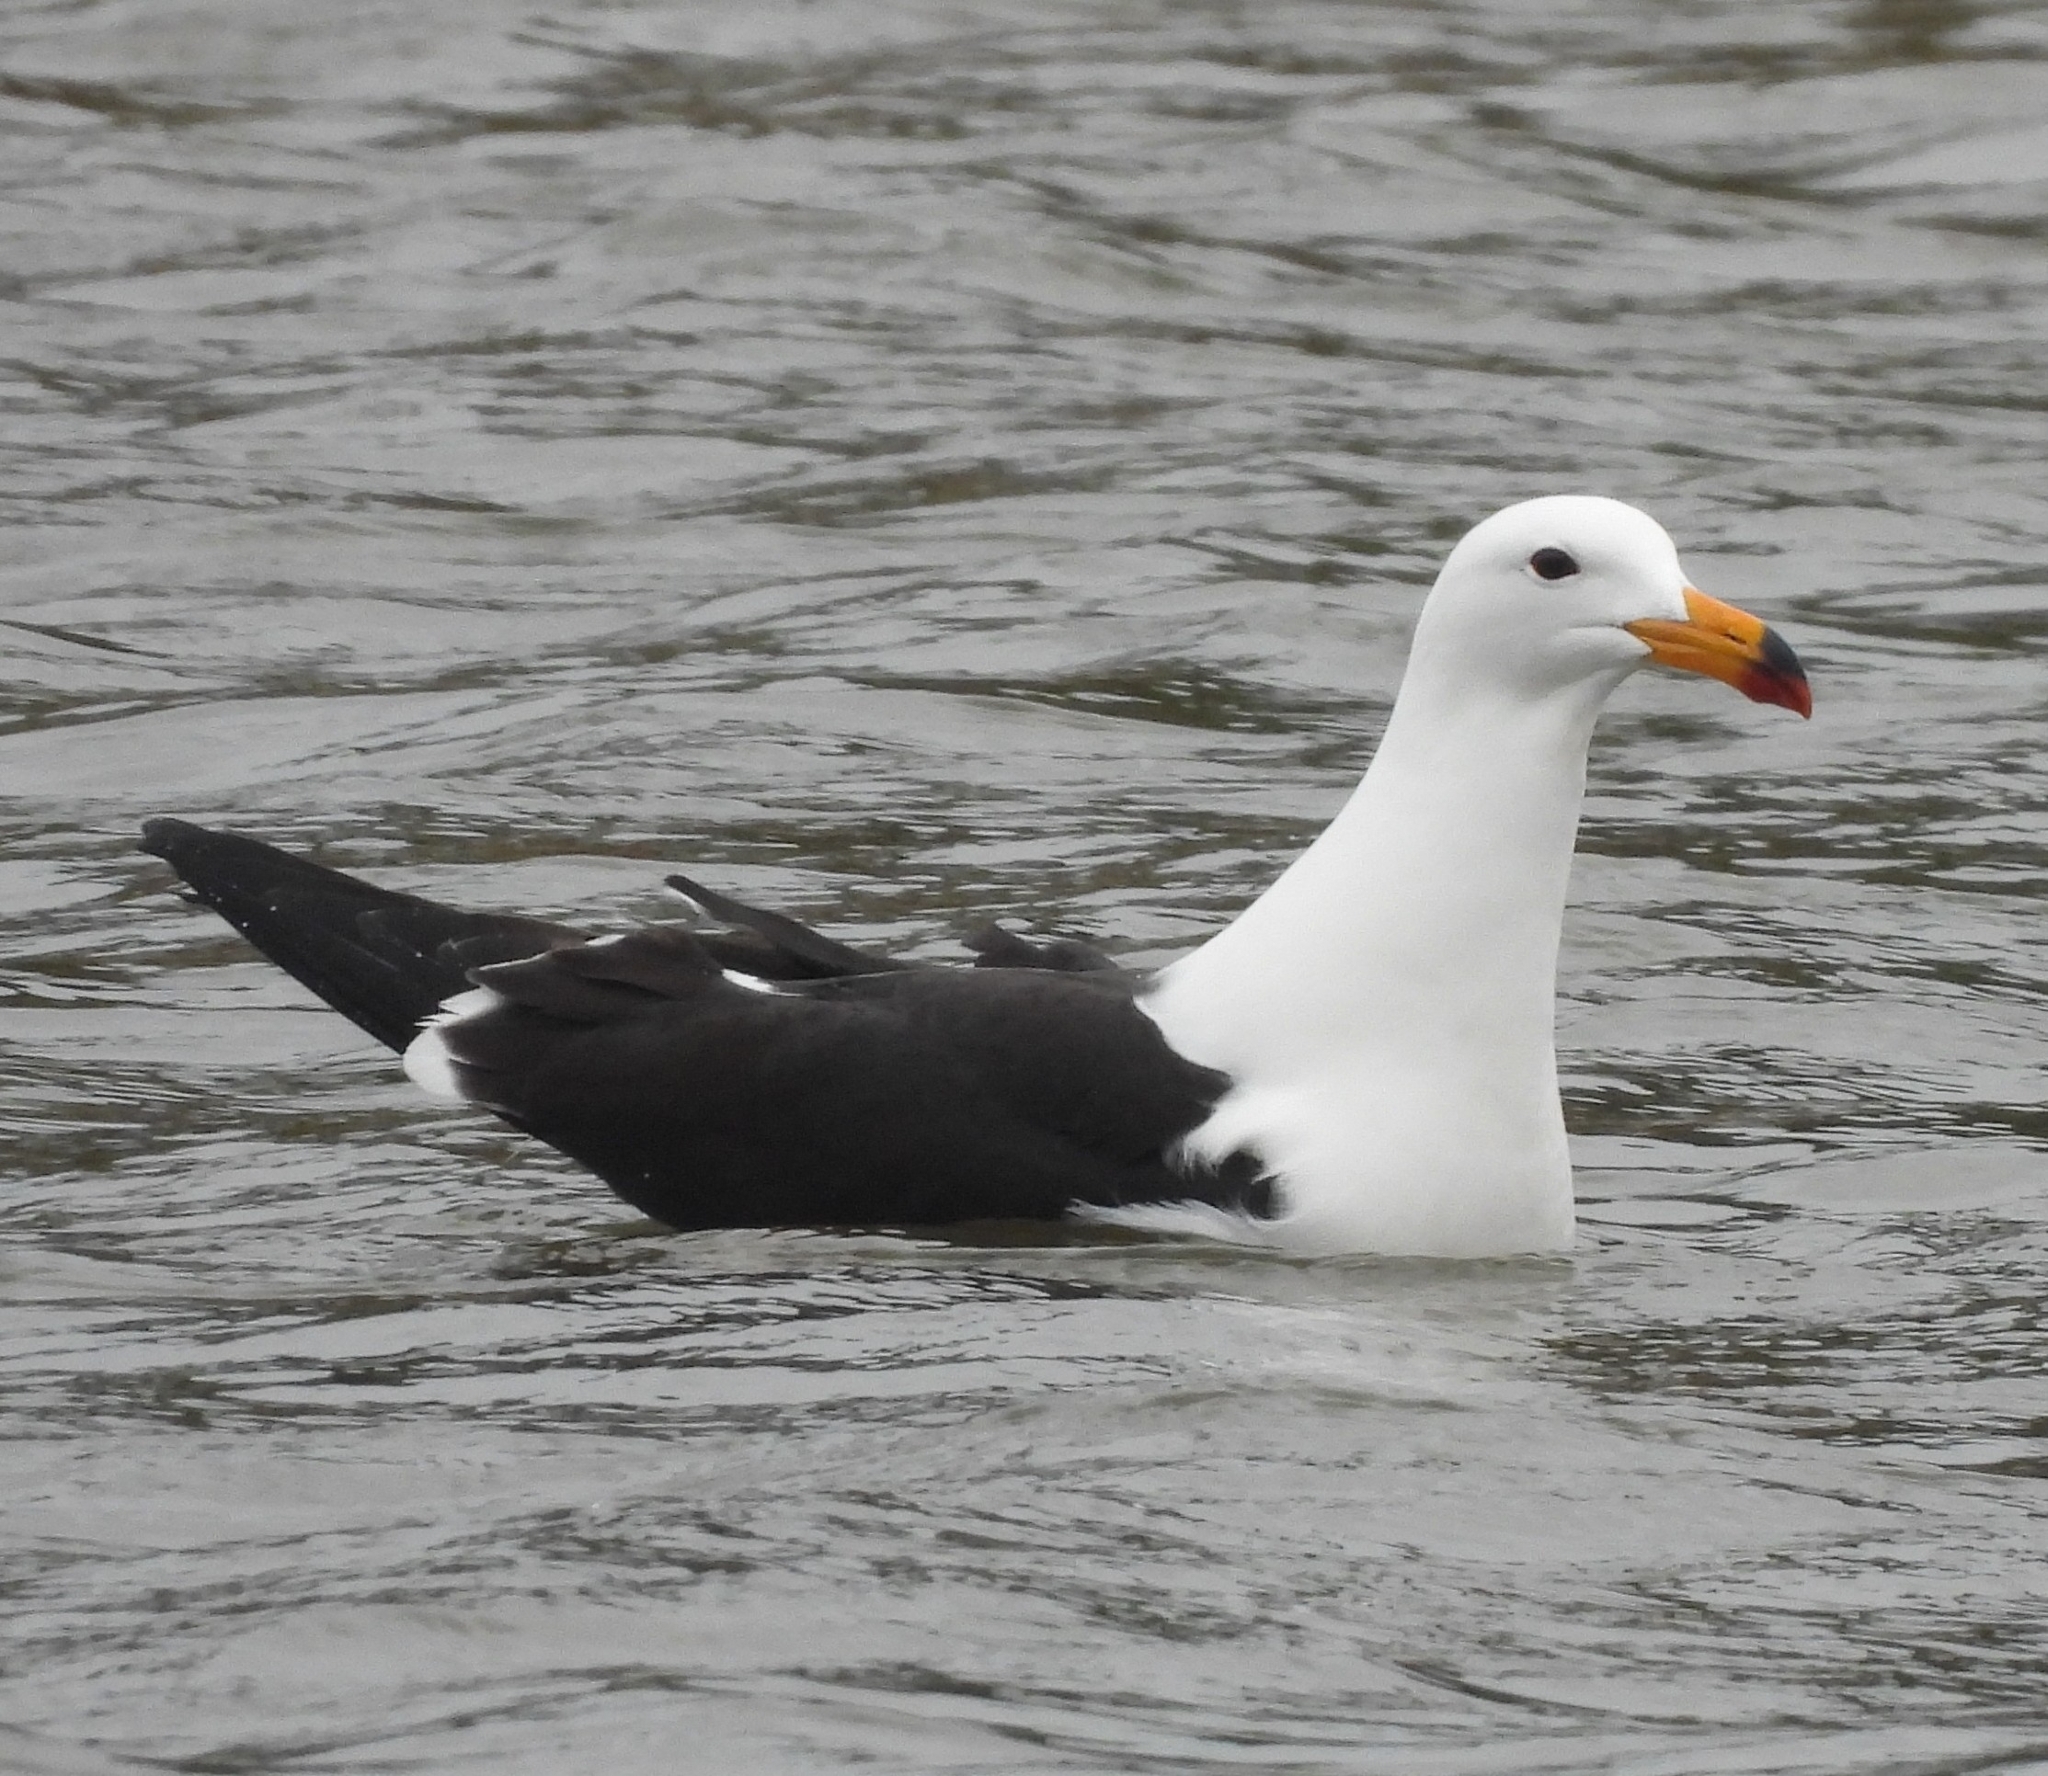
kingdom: Animalia
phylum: Chordata
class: Aves
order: Charadriiformes
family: Laridae
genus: Larus
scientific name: Larus atlanticus
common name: Olrog's gull
